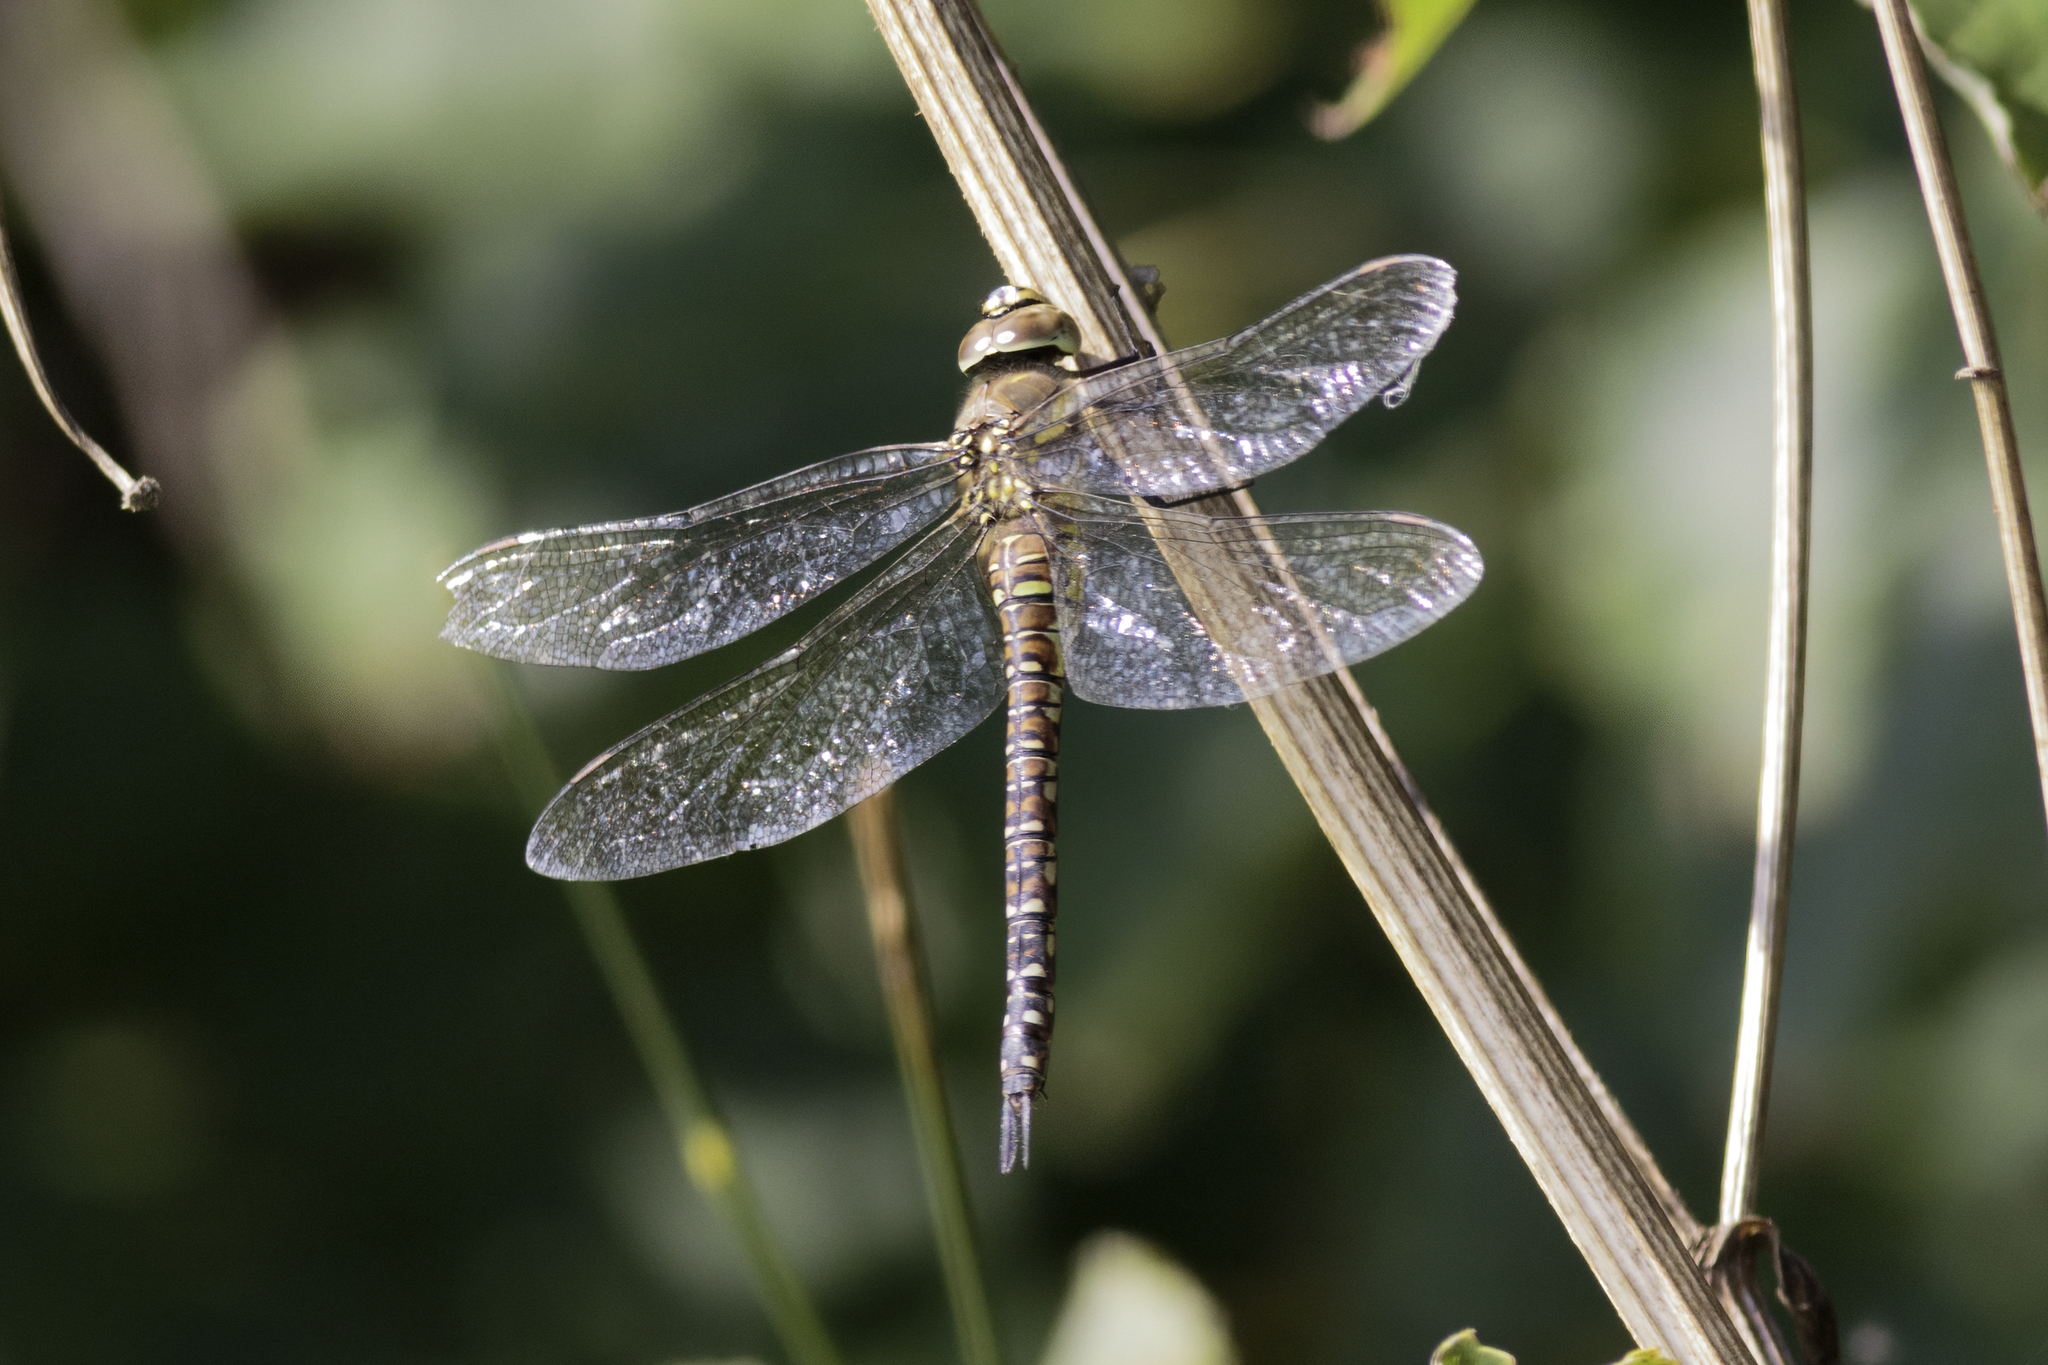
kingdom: Animalia
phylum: Arthropoda
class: Insecta
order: Odonata
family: Aeshnidae
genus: Aeshna
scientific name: Aeshna mixta
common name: Migrant hawker
